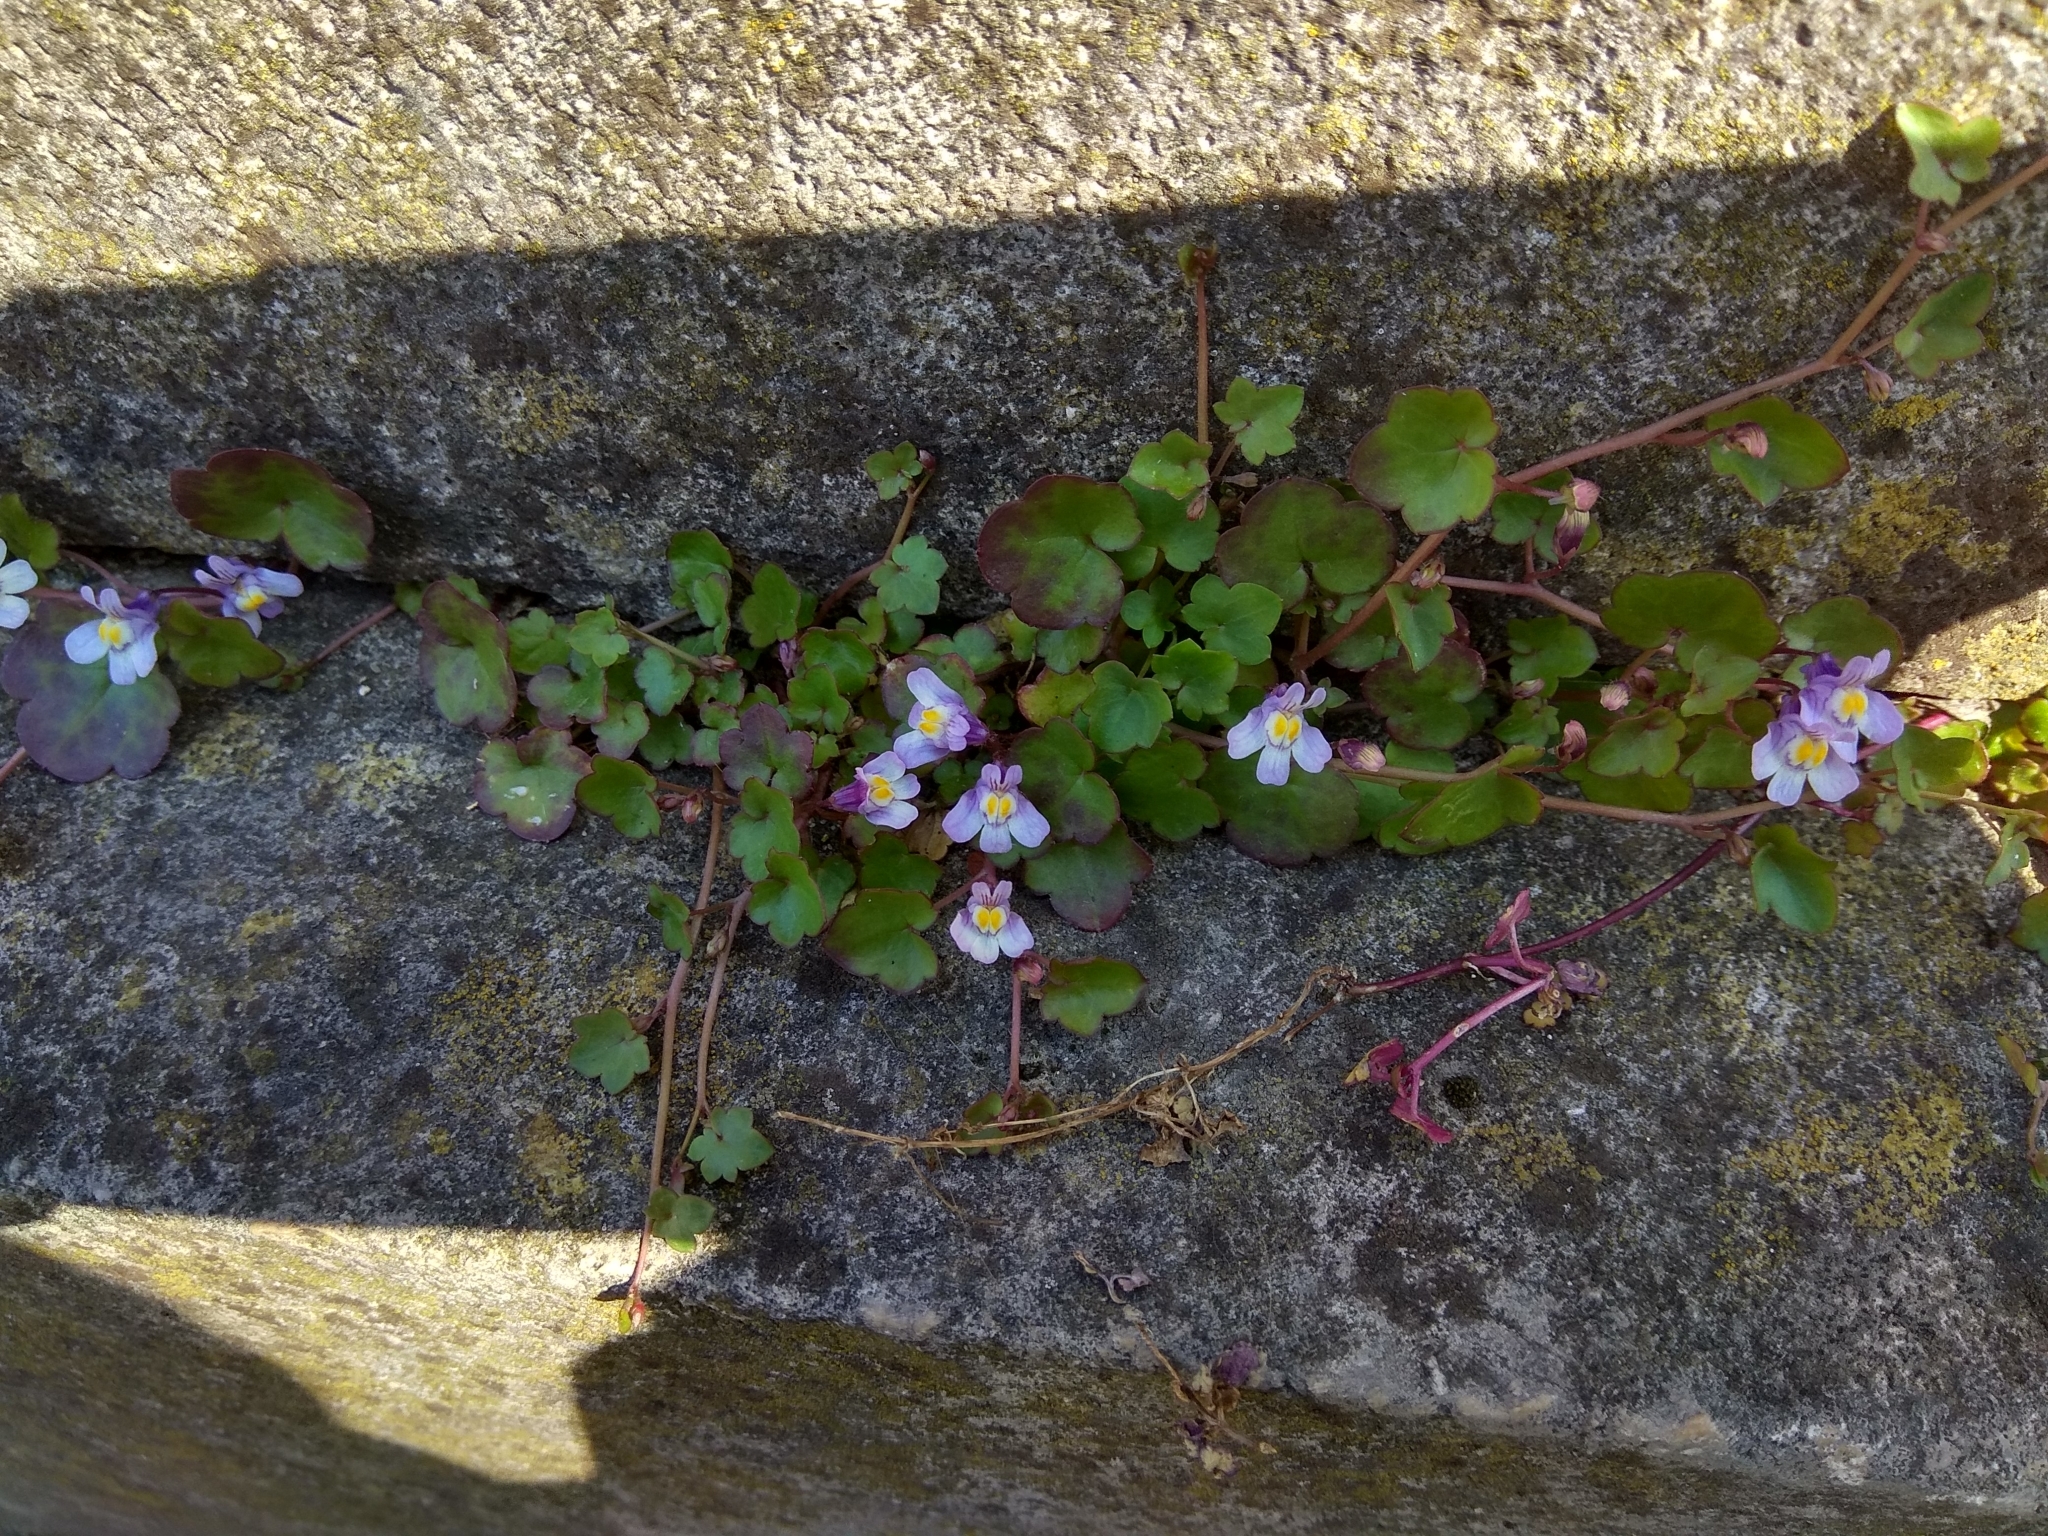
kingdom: Plantae
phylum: Tracheophyta
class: Magnoliopsida
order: Lamiales
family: Plantaginaceae
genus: Cymbalaria
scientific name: Cymbalaria muralis
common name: Ivy-leaved toadflax
